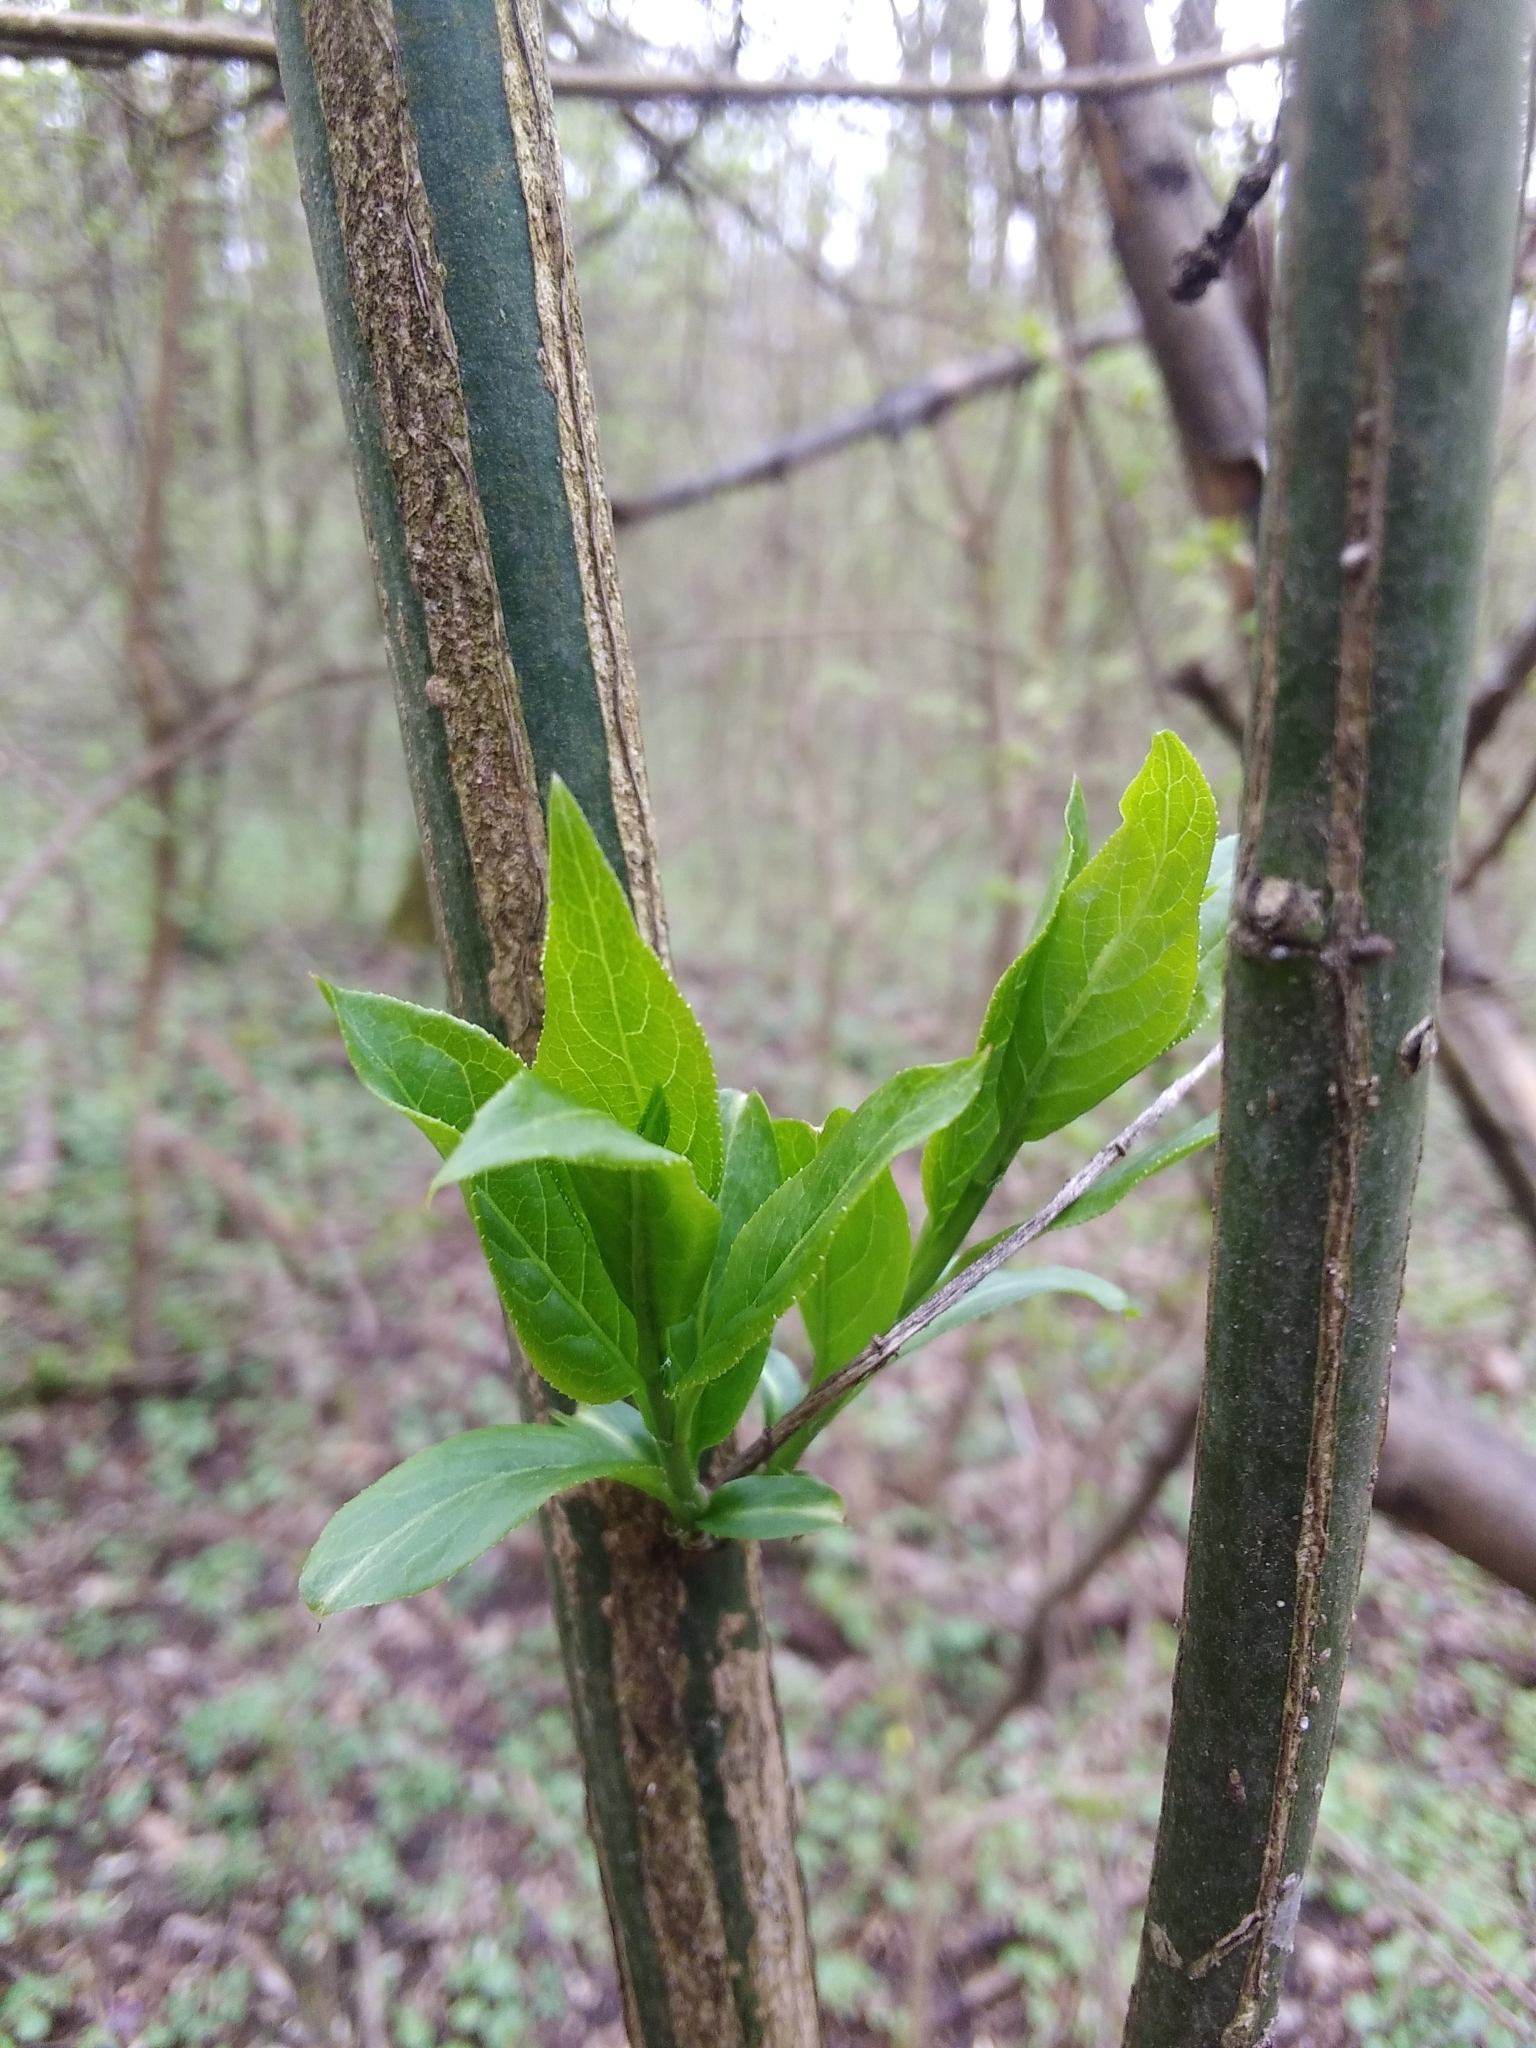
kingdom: Plantae
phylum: Tracheophyta
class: Magnoliopsida
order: Celastrales
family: Celastraceae
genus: Euonymus
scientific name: Euonymus europaeus
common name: Spindle
